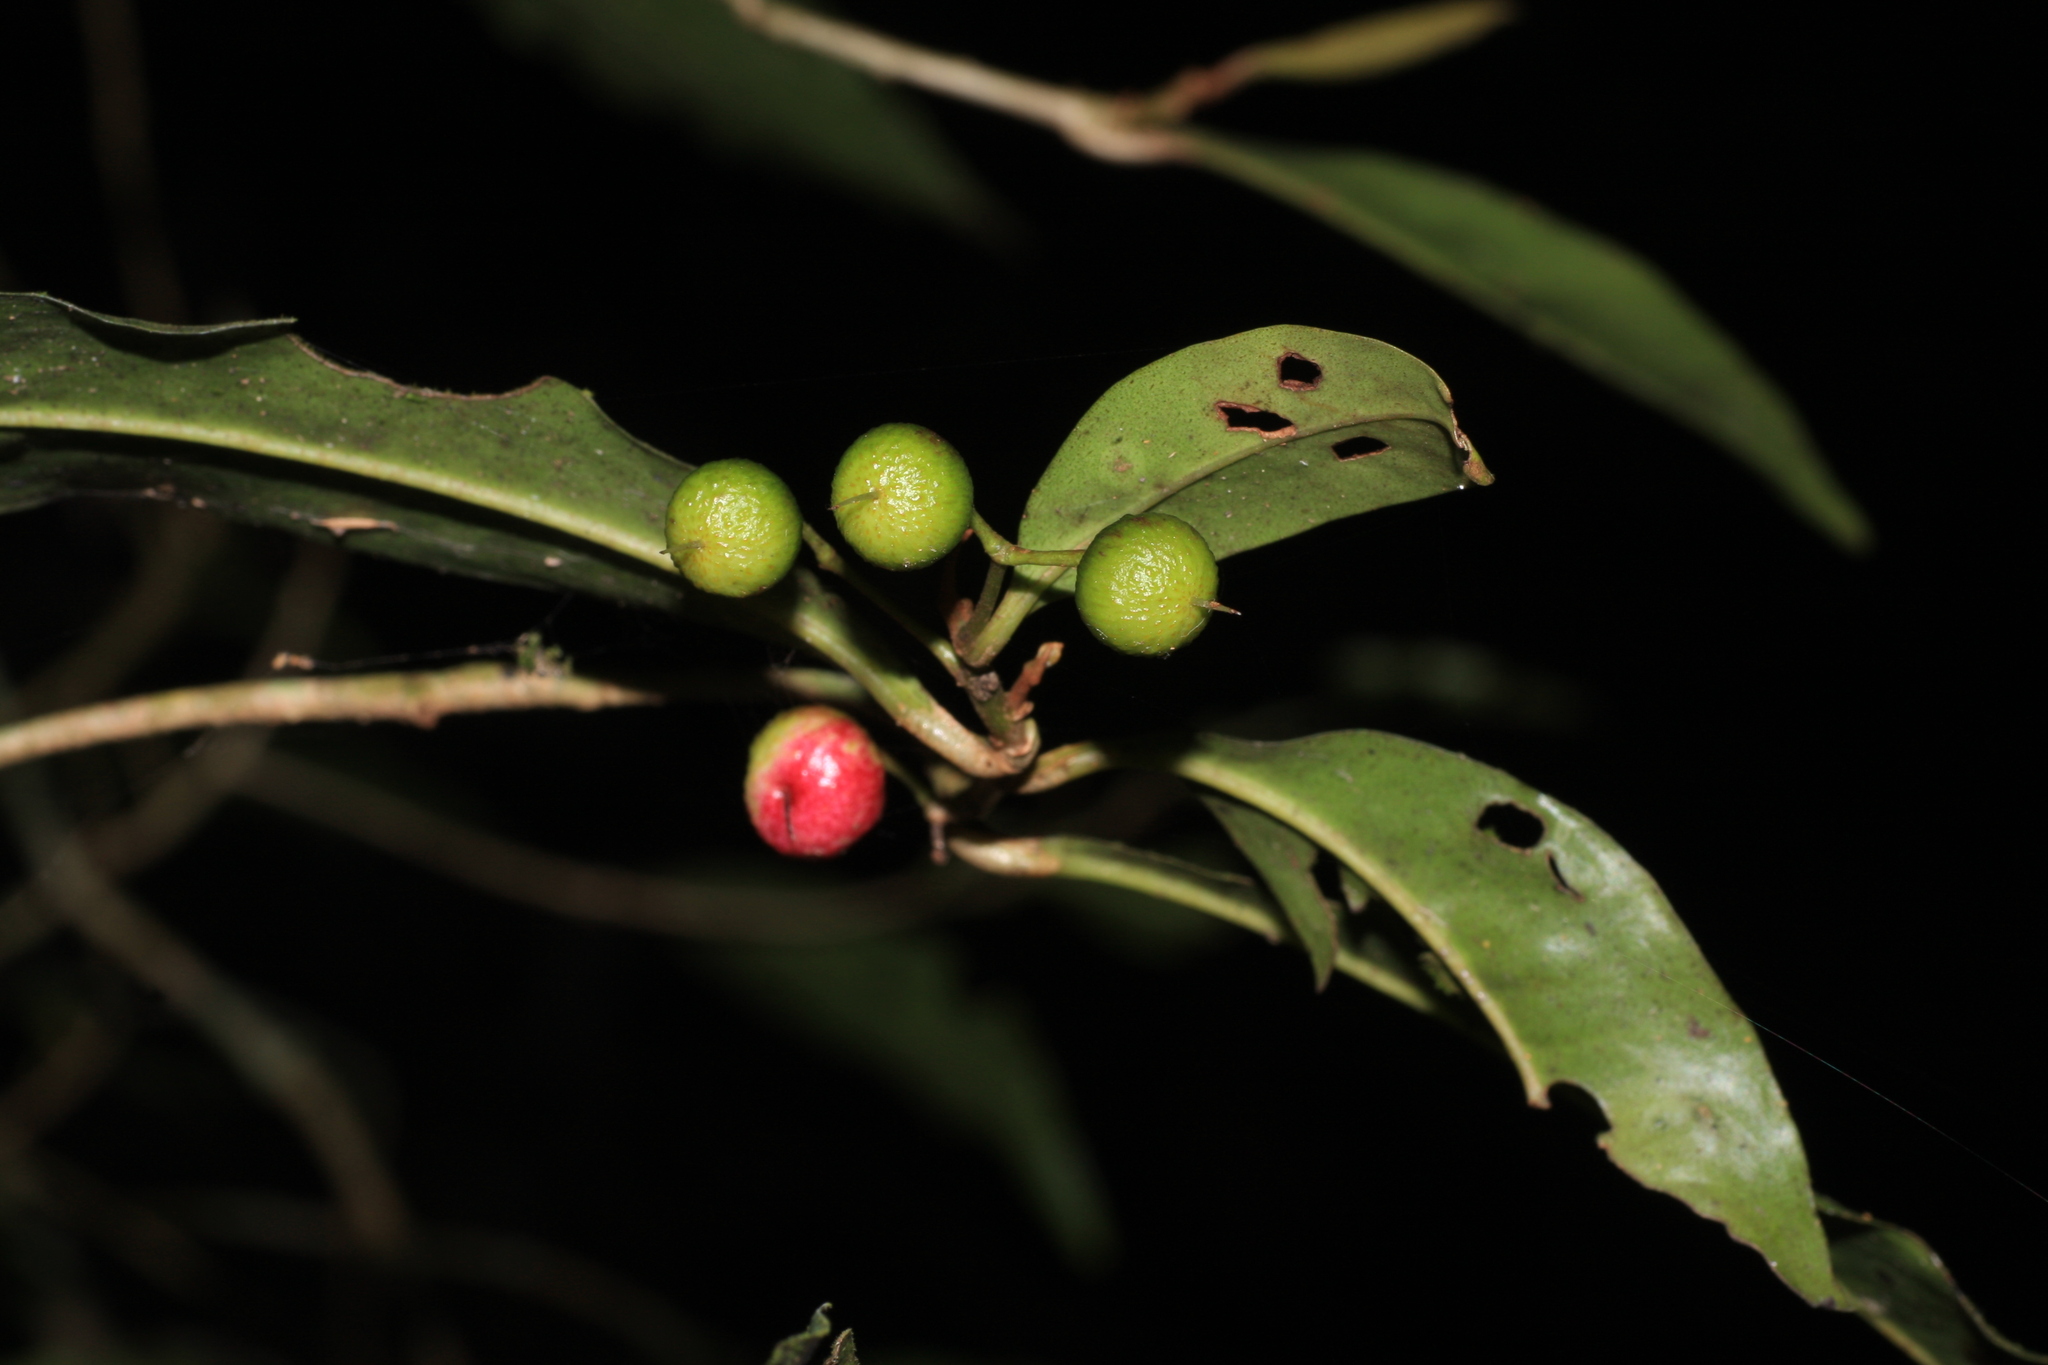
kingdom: Plantae
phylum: Tracheophyta
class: Magnoliopsida
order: Ericales
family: Primulaceae
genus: Ardisia
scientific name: Ardisia pauciflora
